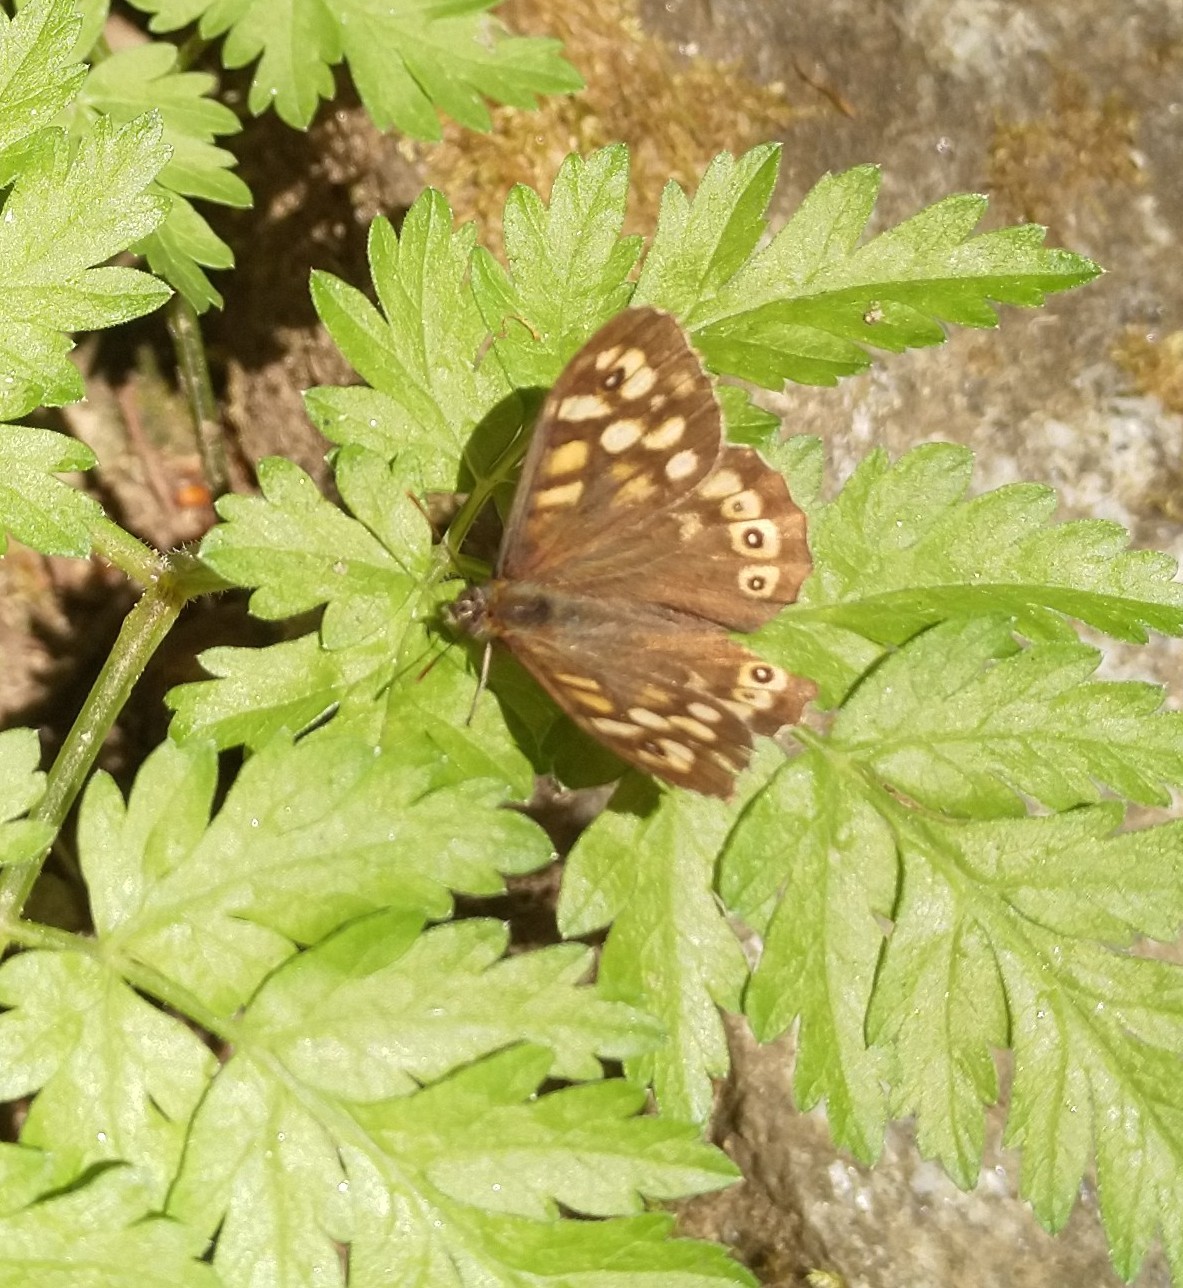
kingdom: Animalia
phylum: Arthropoda
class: Insecta
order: Lepidoptera
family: Nymphalidae
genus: Pararge
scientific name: Pararge aegeria
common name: Speckled wood
